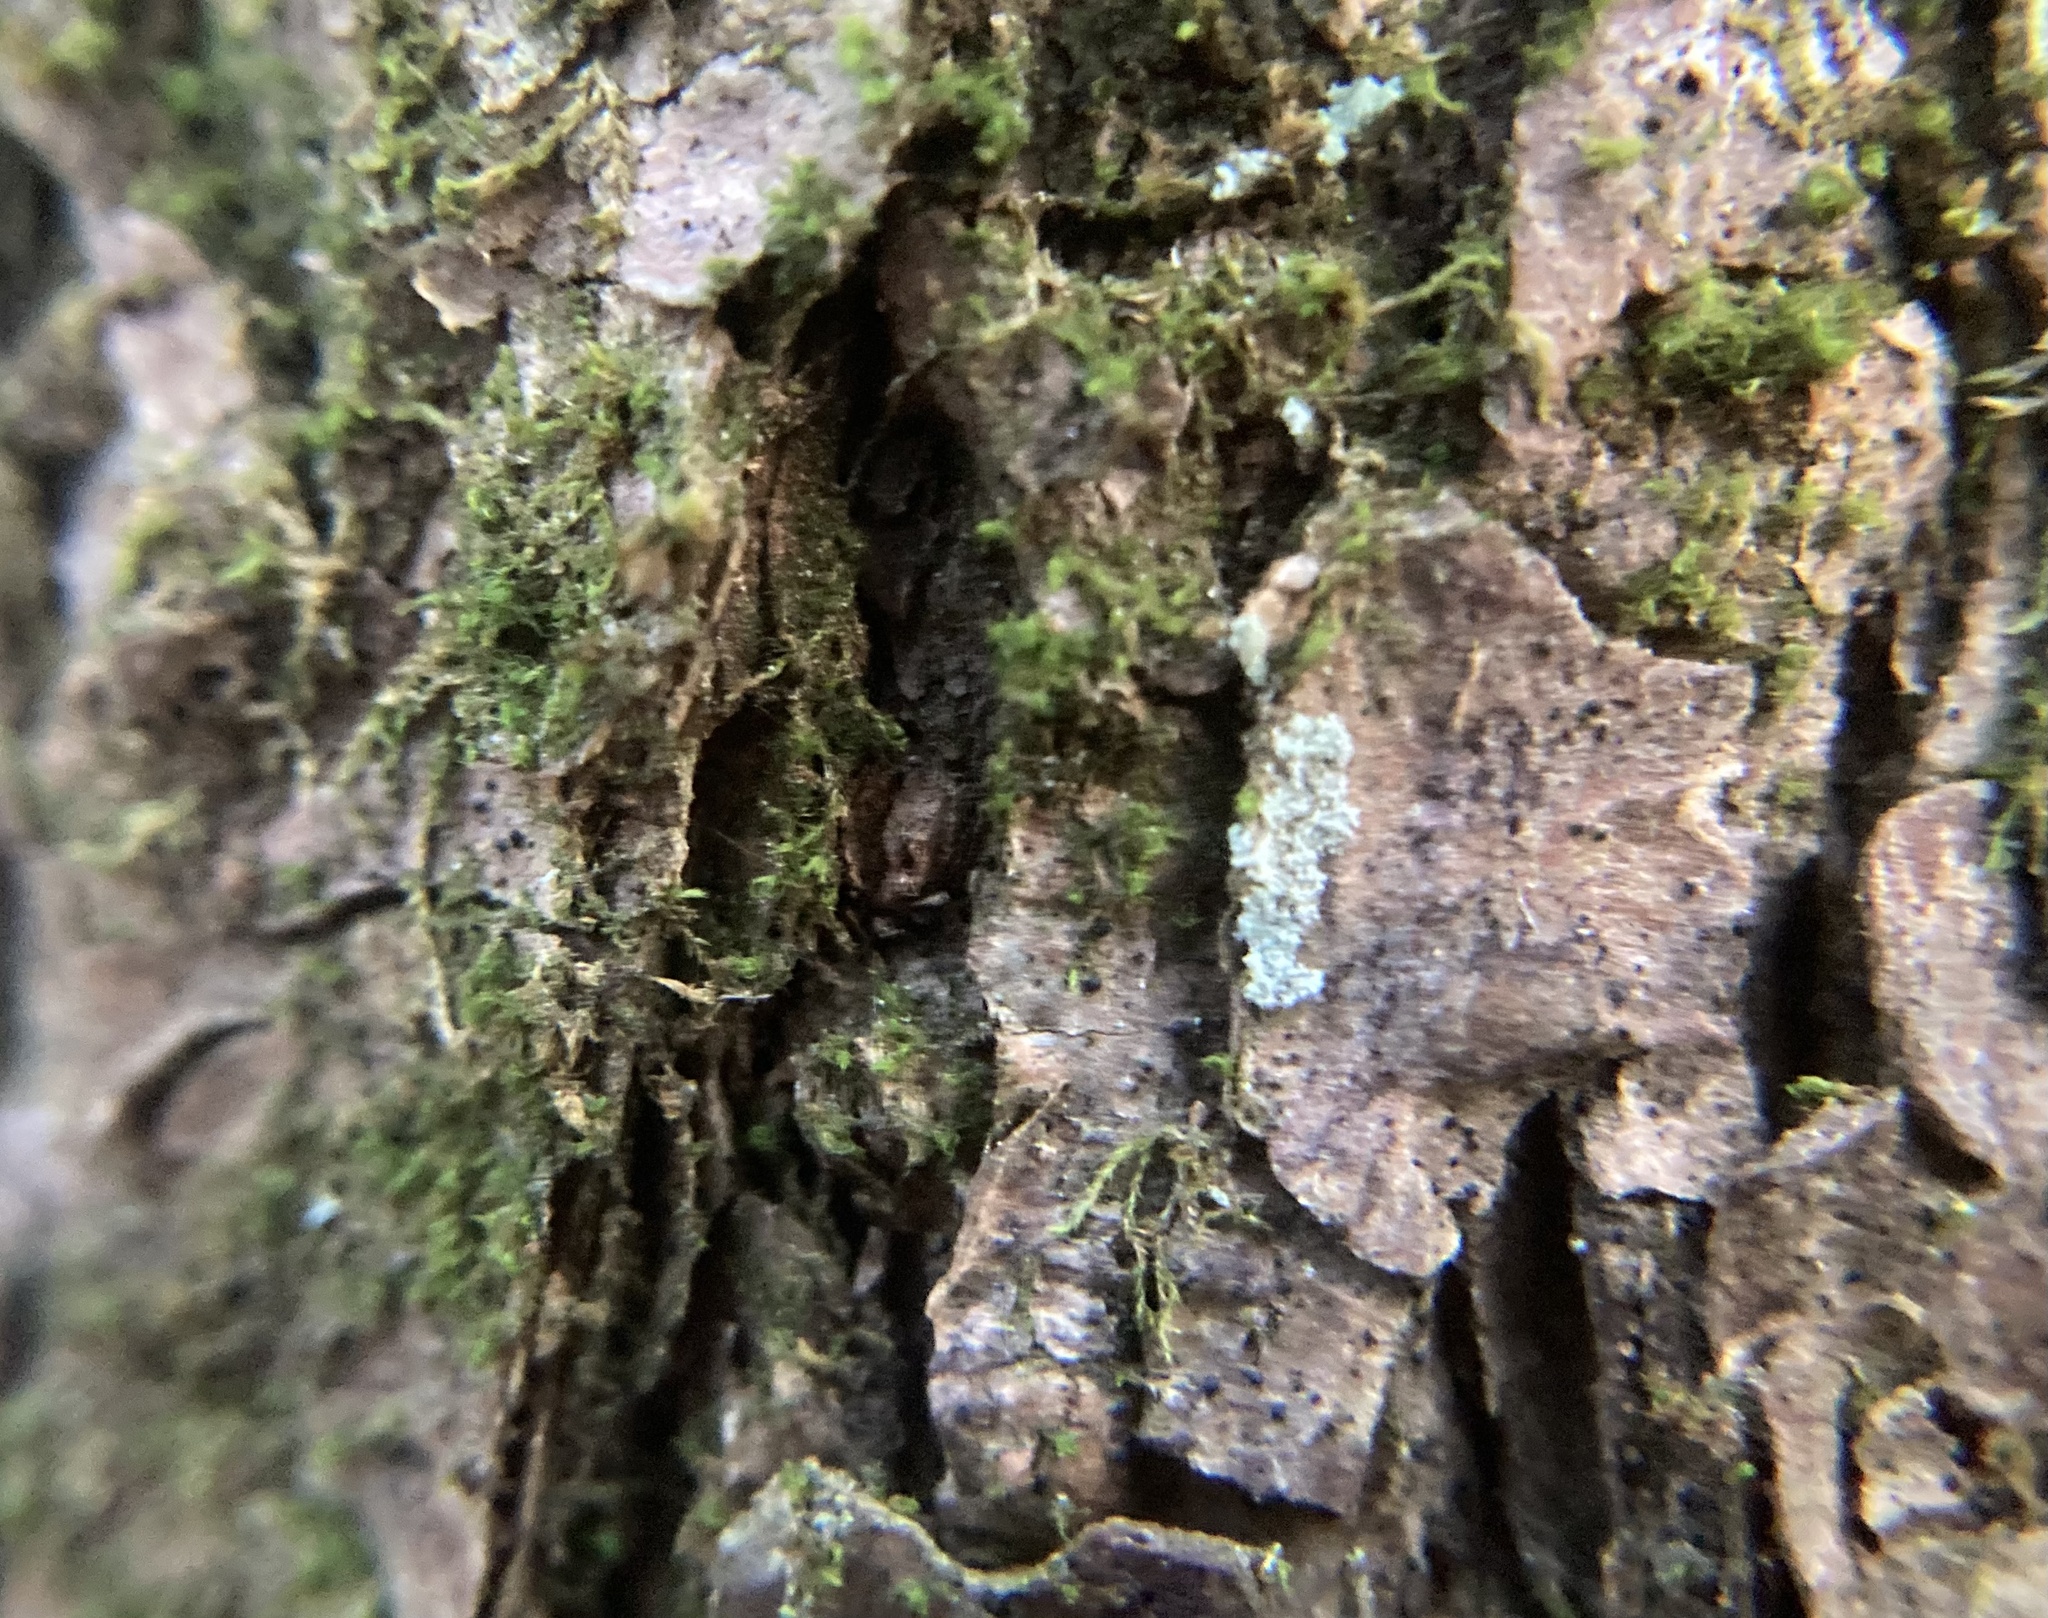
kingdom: Plantae
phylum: Tracheophyta
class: Pinopsida
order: Pinales
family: Pinaceae
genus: Tsuga
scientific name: Tsuga canadensis
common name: Eastern hemlock
